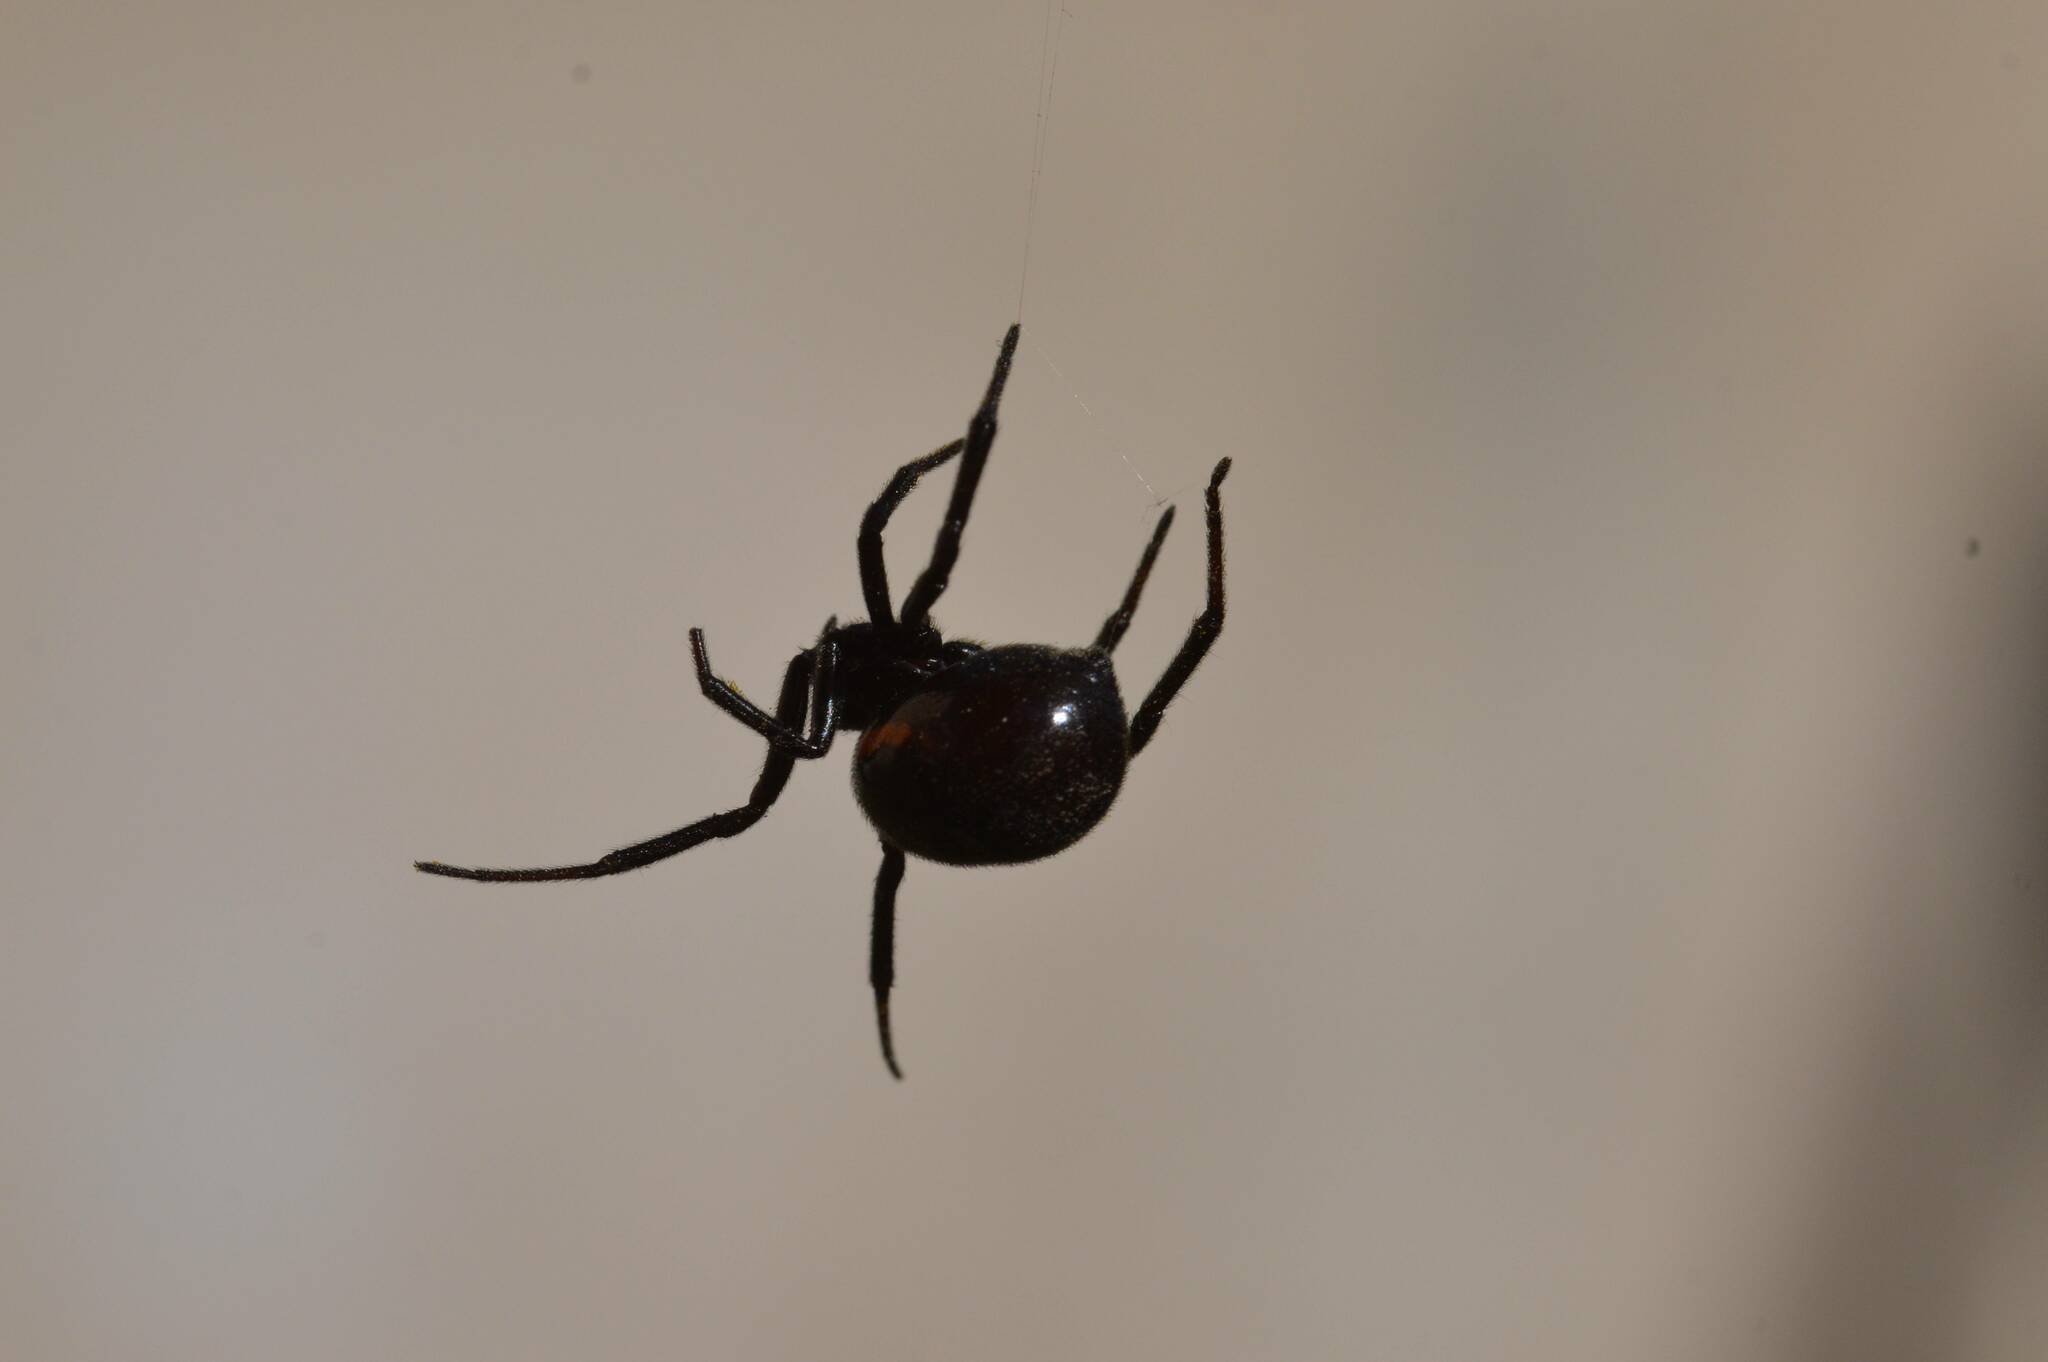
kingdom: Animalia
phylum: Arthropoda
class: Arachnida
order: Araneae
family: Theridiidae
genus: Steatoda
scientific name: Steatoda paykulliana
